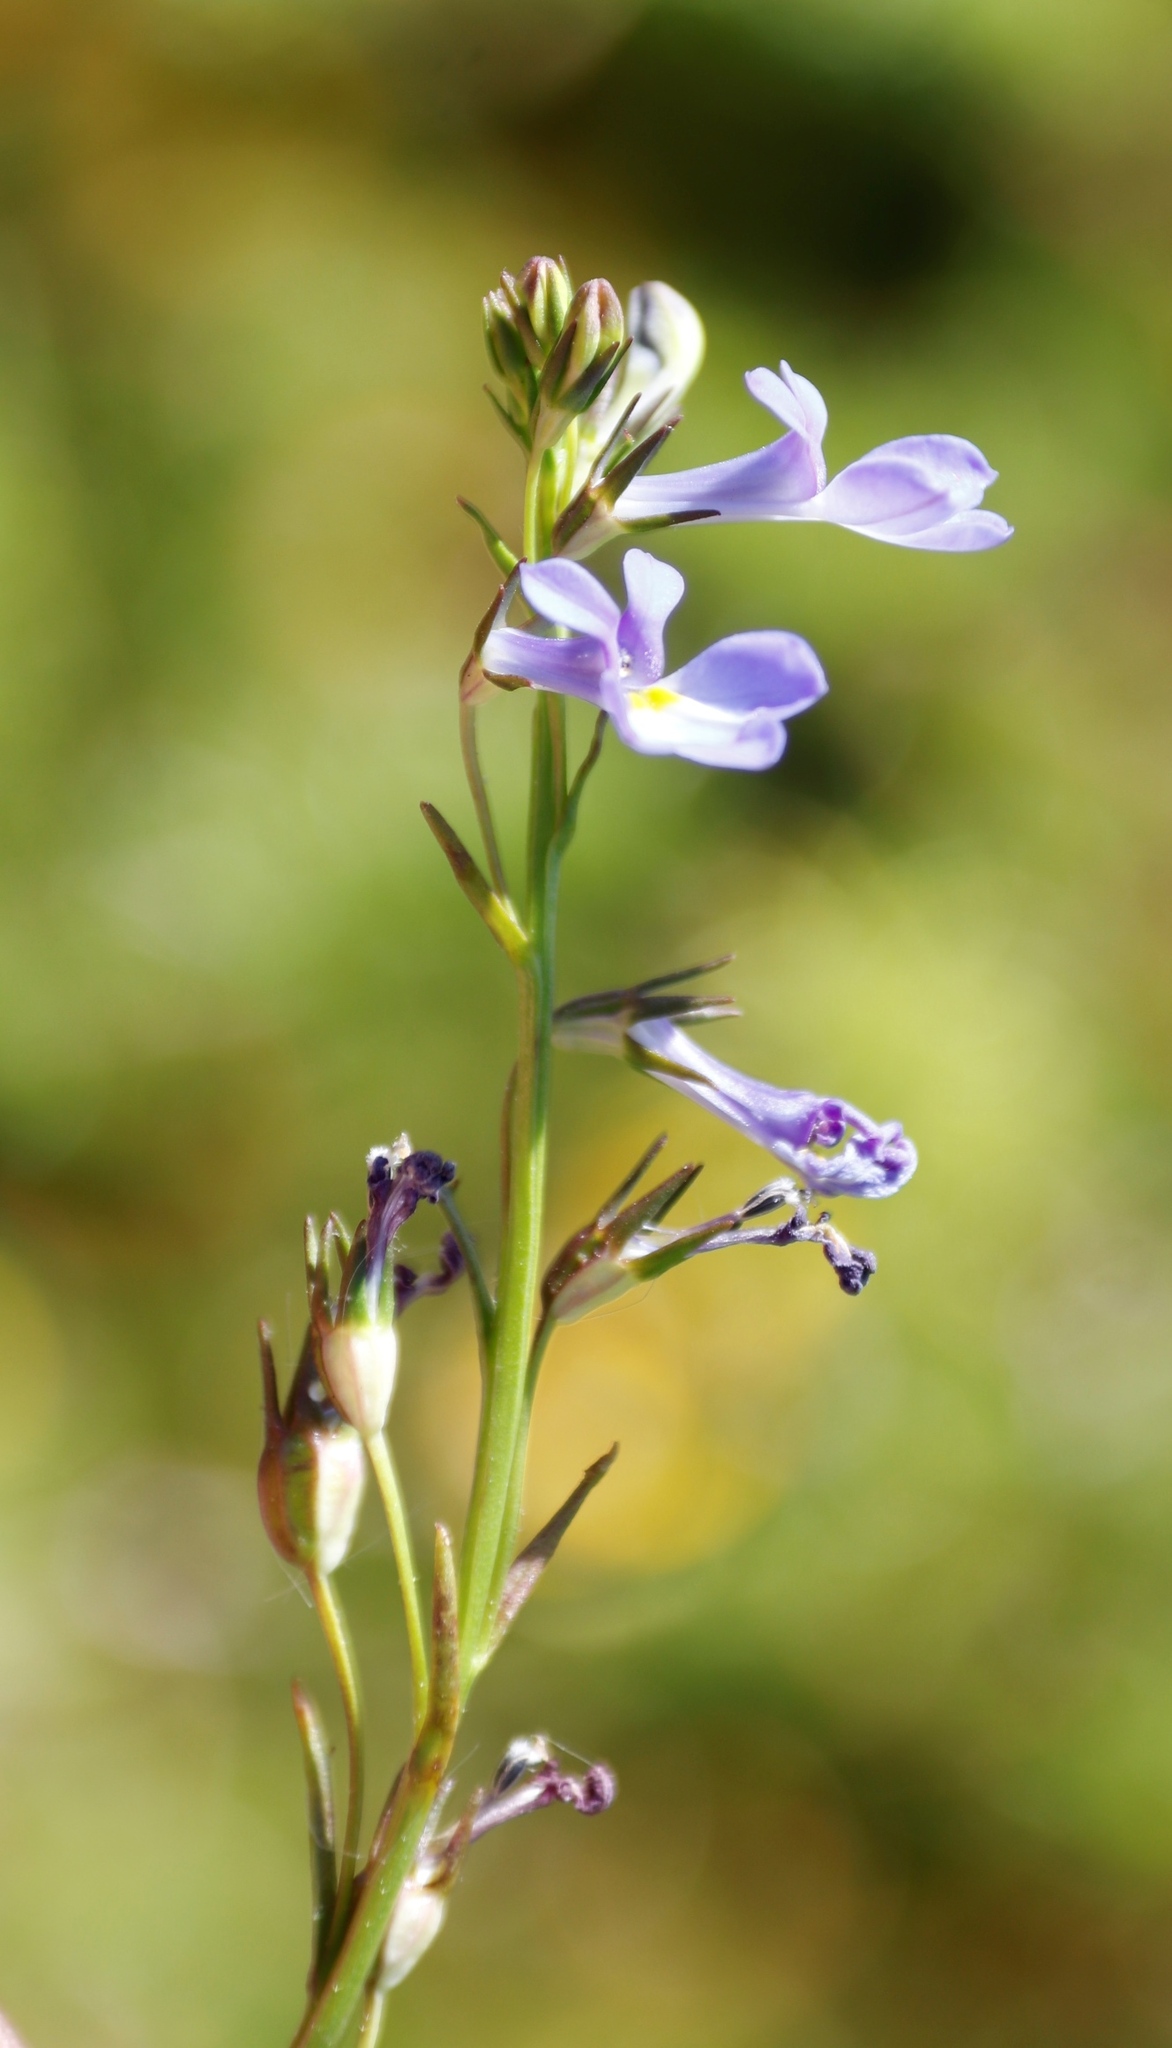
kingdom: Plantae
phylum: Tracheophyta
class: Magnoliopsida
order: Asterales
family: Campanulaceae
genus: Lobelia
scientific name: Lobelia comosa
